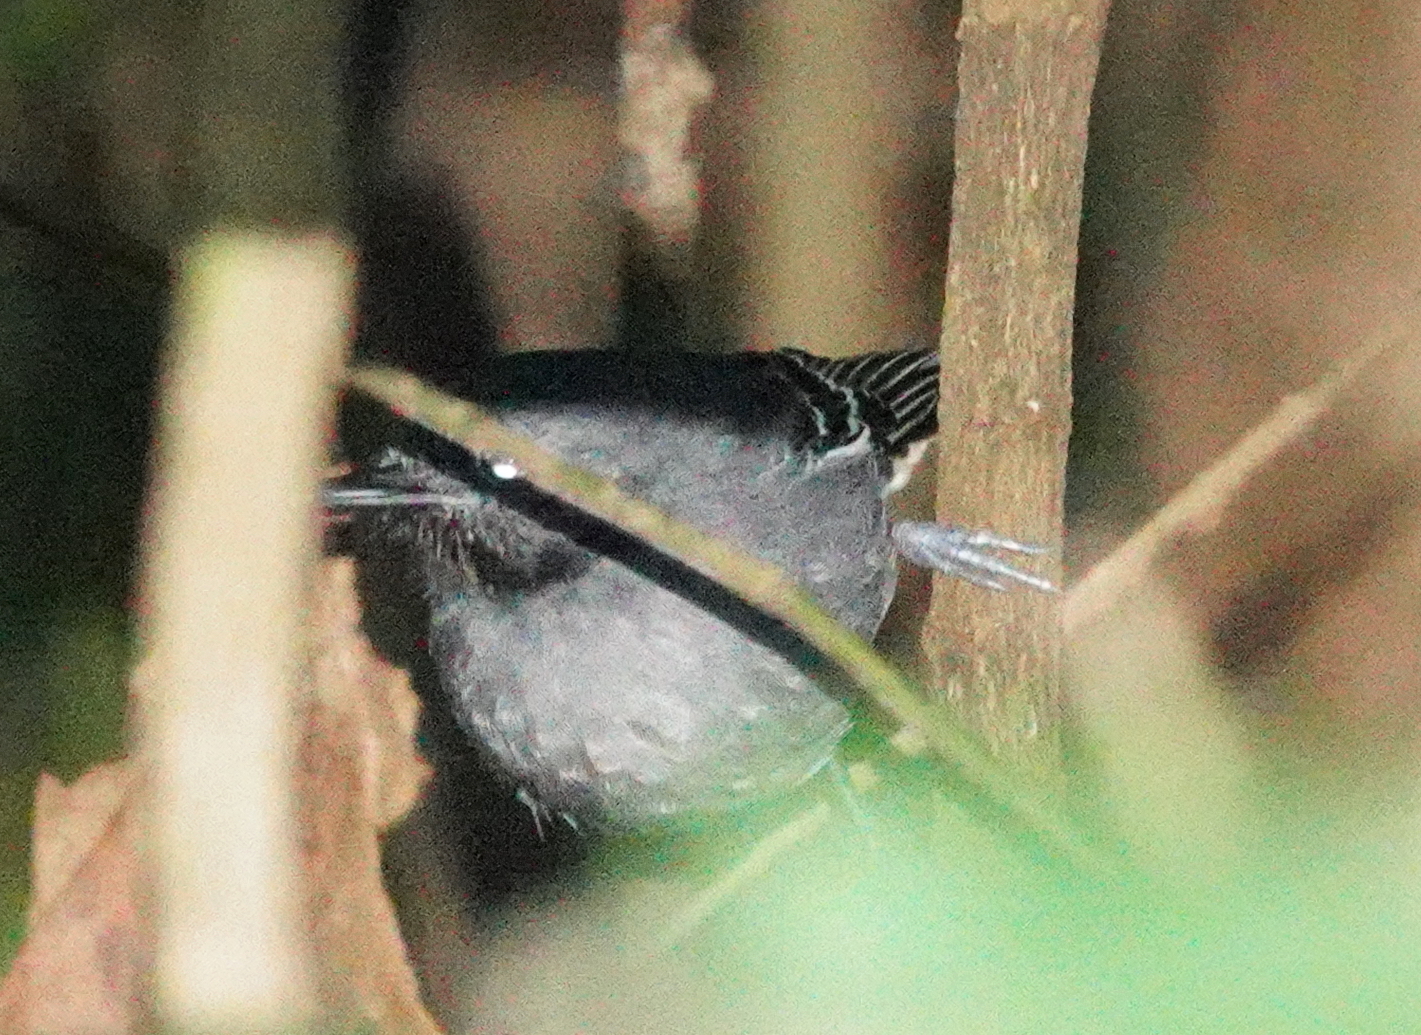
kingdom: Animalia
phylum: Chordata
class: Aves
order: Passeriformes
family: Thamnophilidae
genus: Hypocnemoides
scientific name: Hypocnemoides melanopogon
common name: Black-chinned antbird
